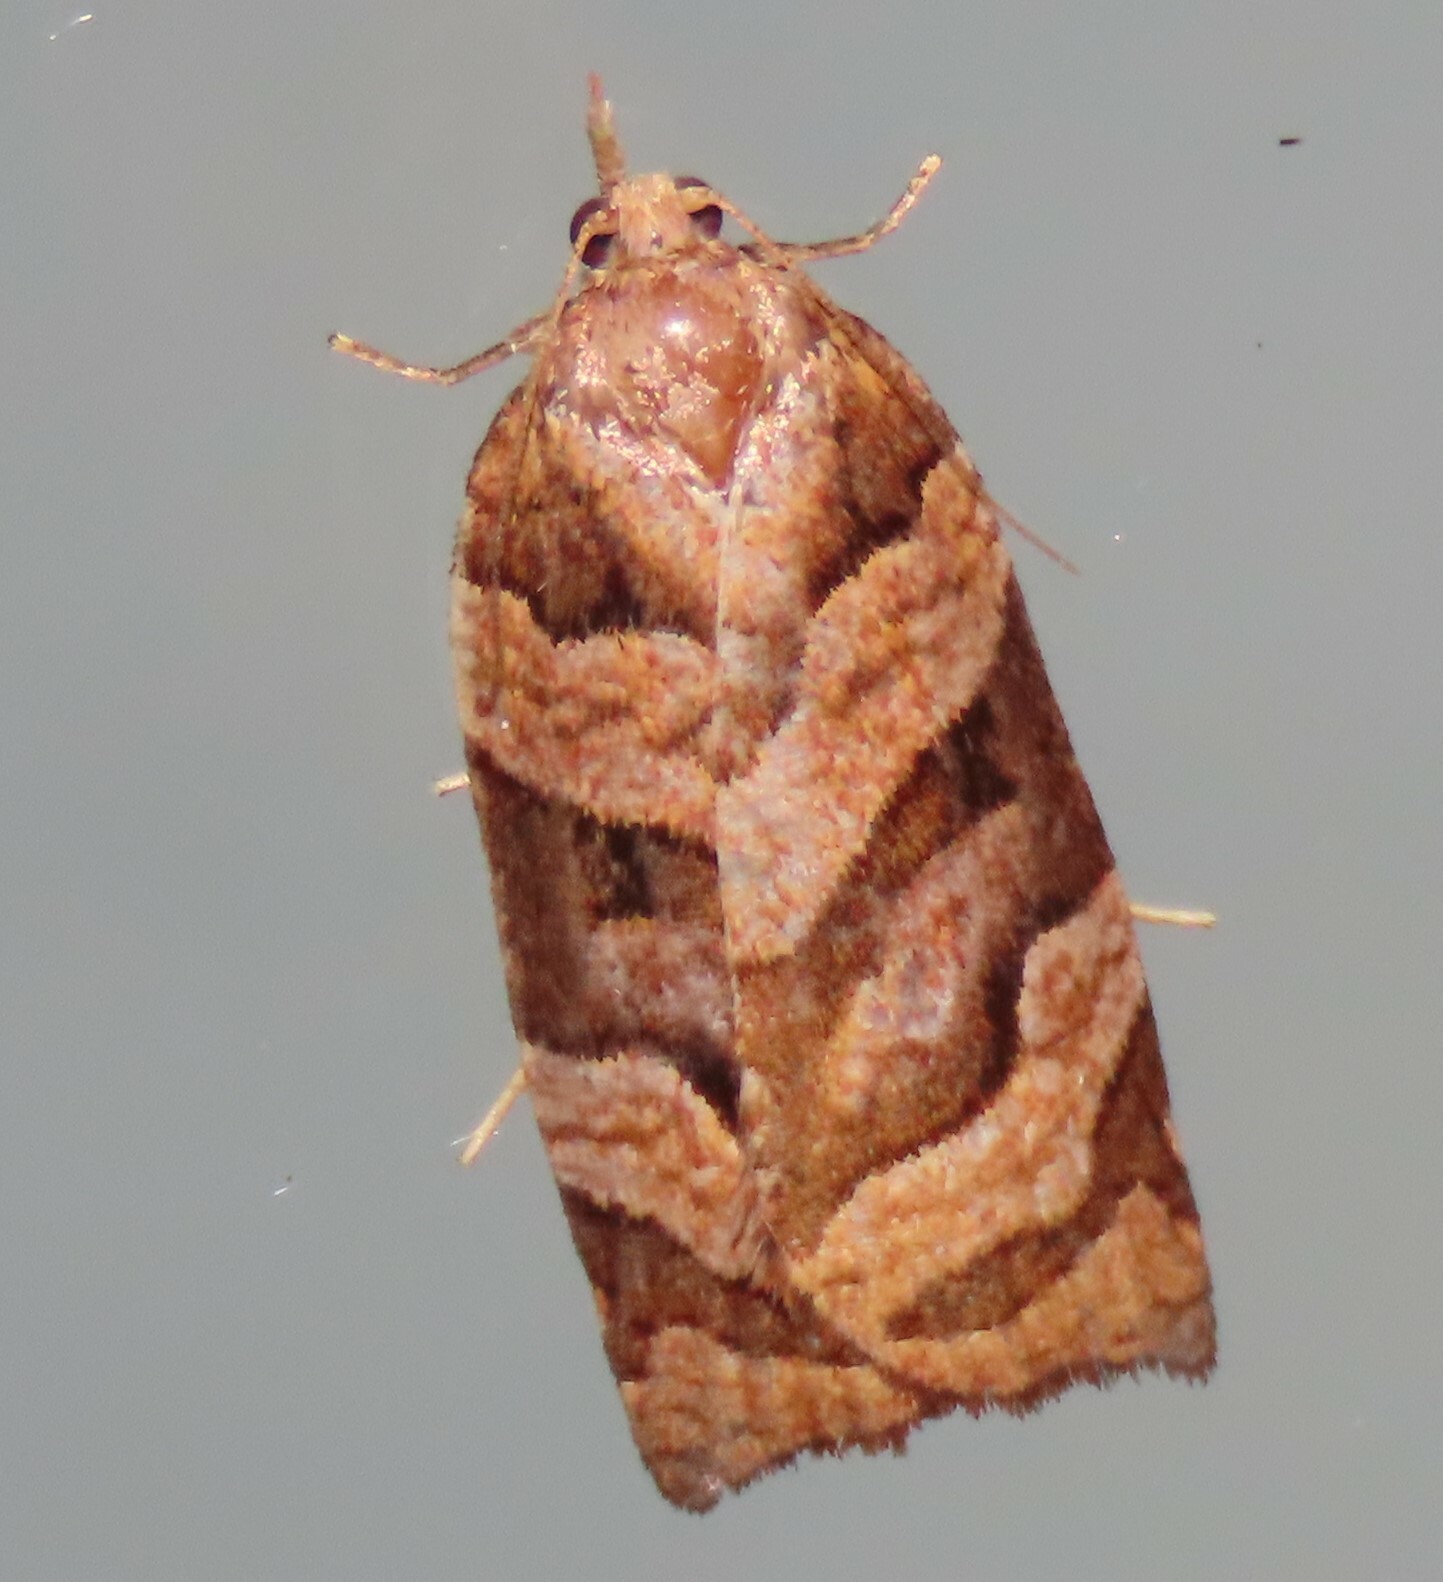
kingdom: Animalia
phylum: Arthropoda
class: Insecta
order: Lepidoptera
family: Tortricidae
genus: Apoctena
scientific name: Apoctena tigris
